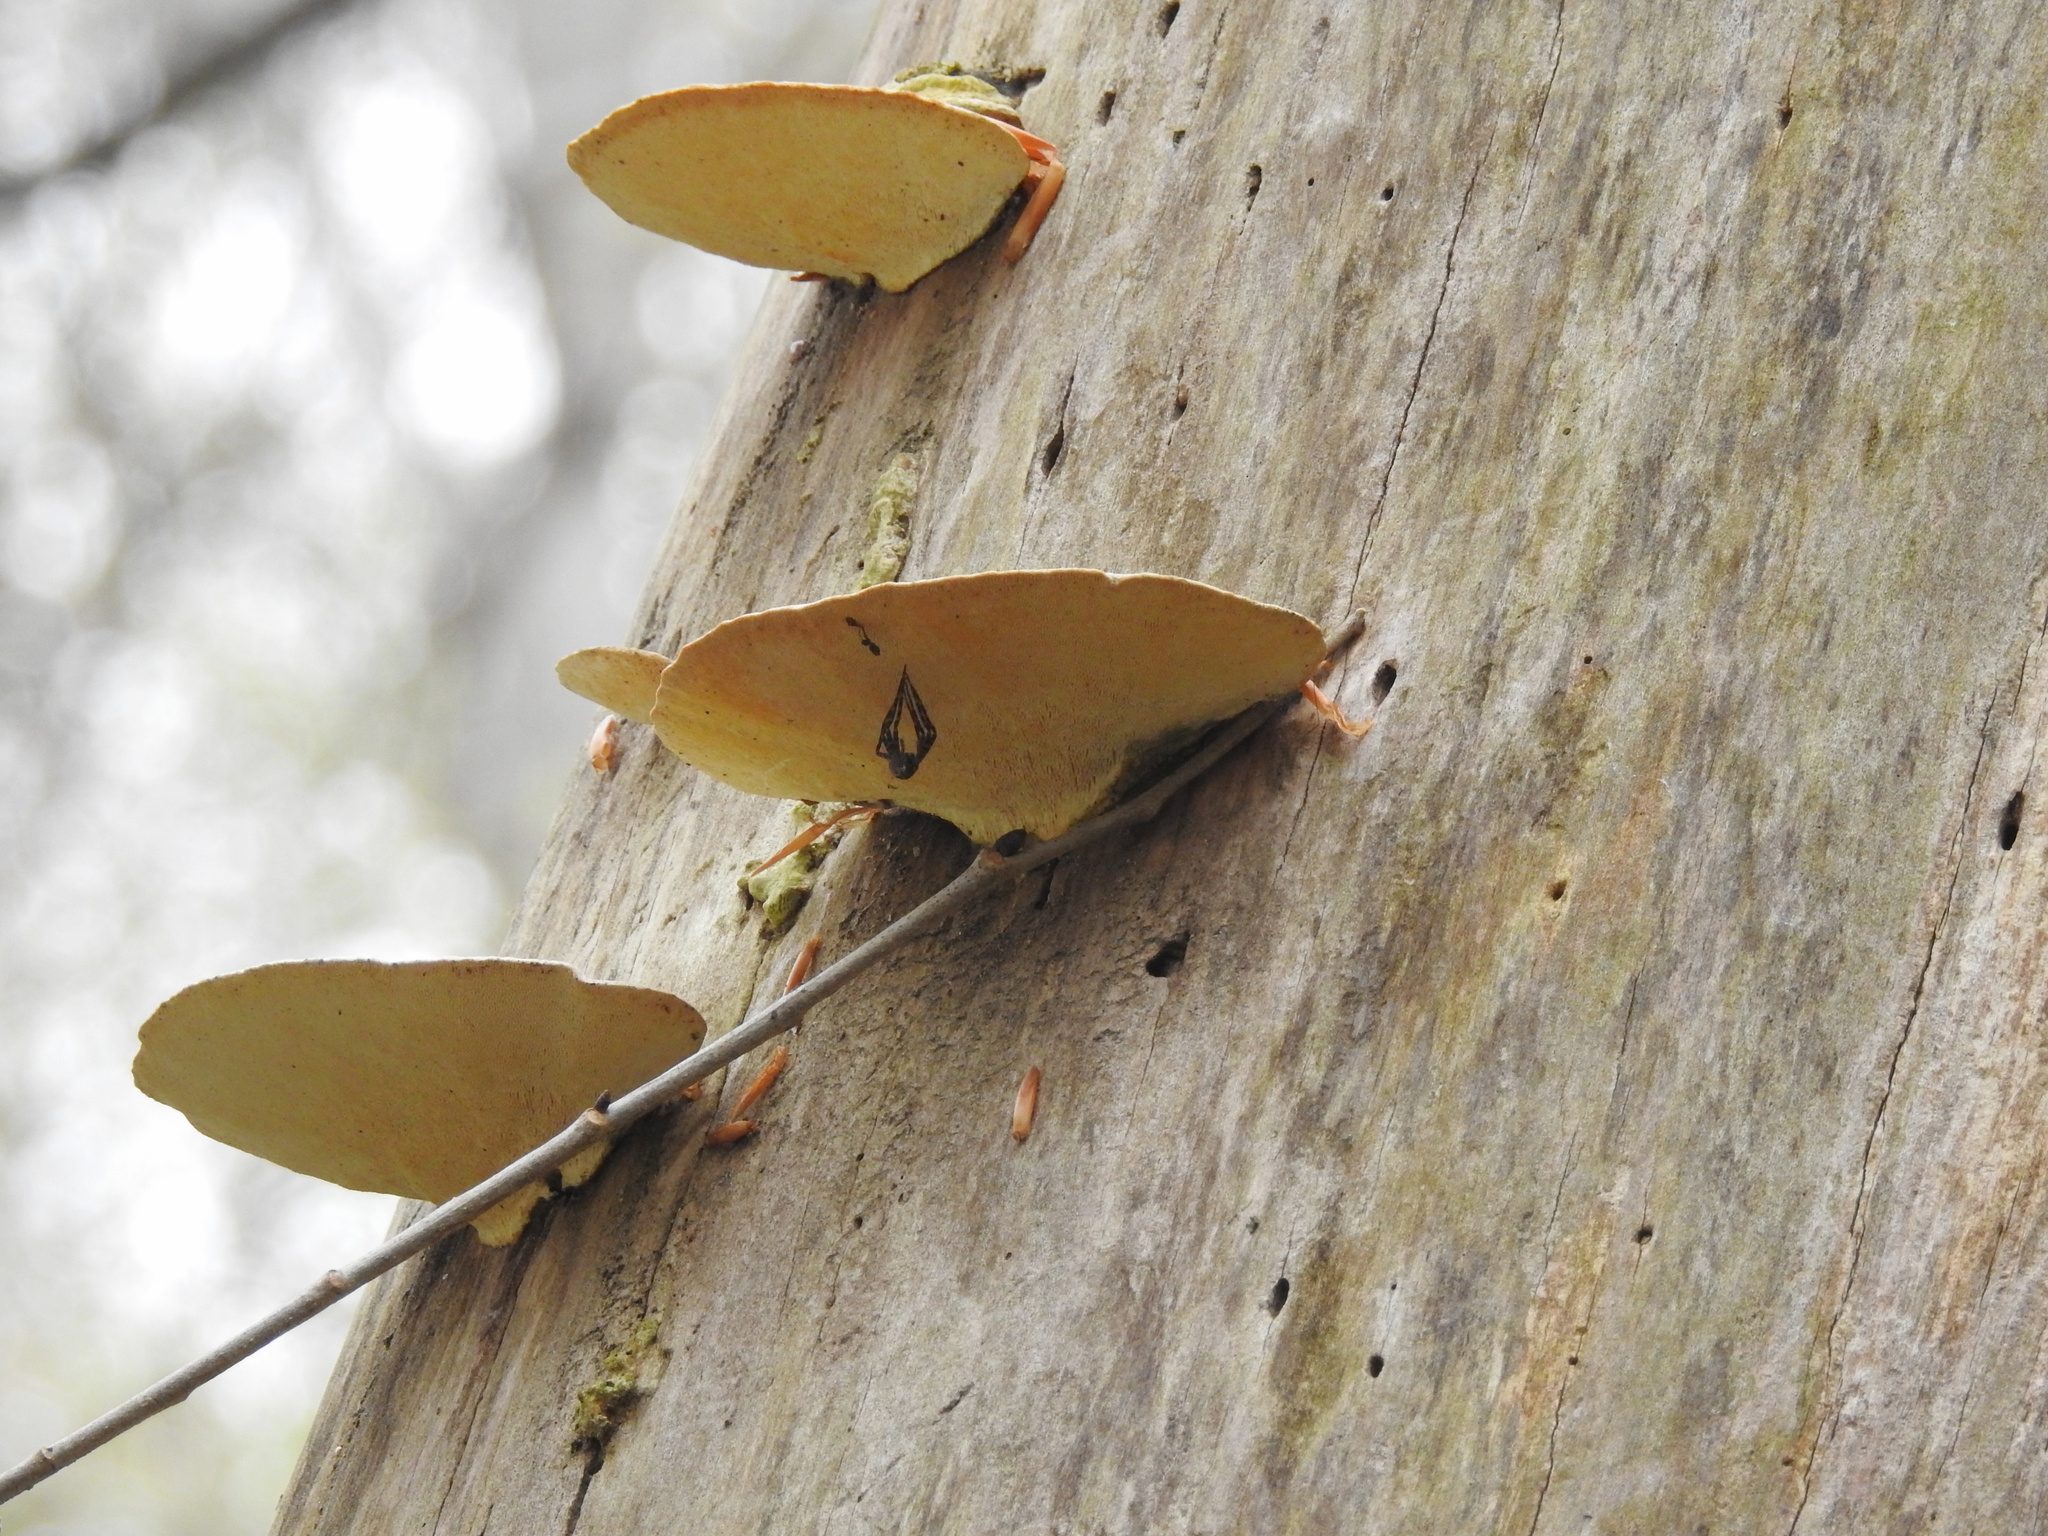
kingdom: Fungi
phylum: Basidiomycota
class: Agaricomycetes
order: Polyporales
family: Polyporaceae
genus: Cerioporus
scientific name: Cerioporus squamosus
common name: Dryad's saddle
